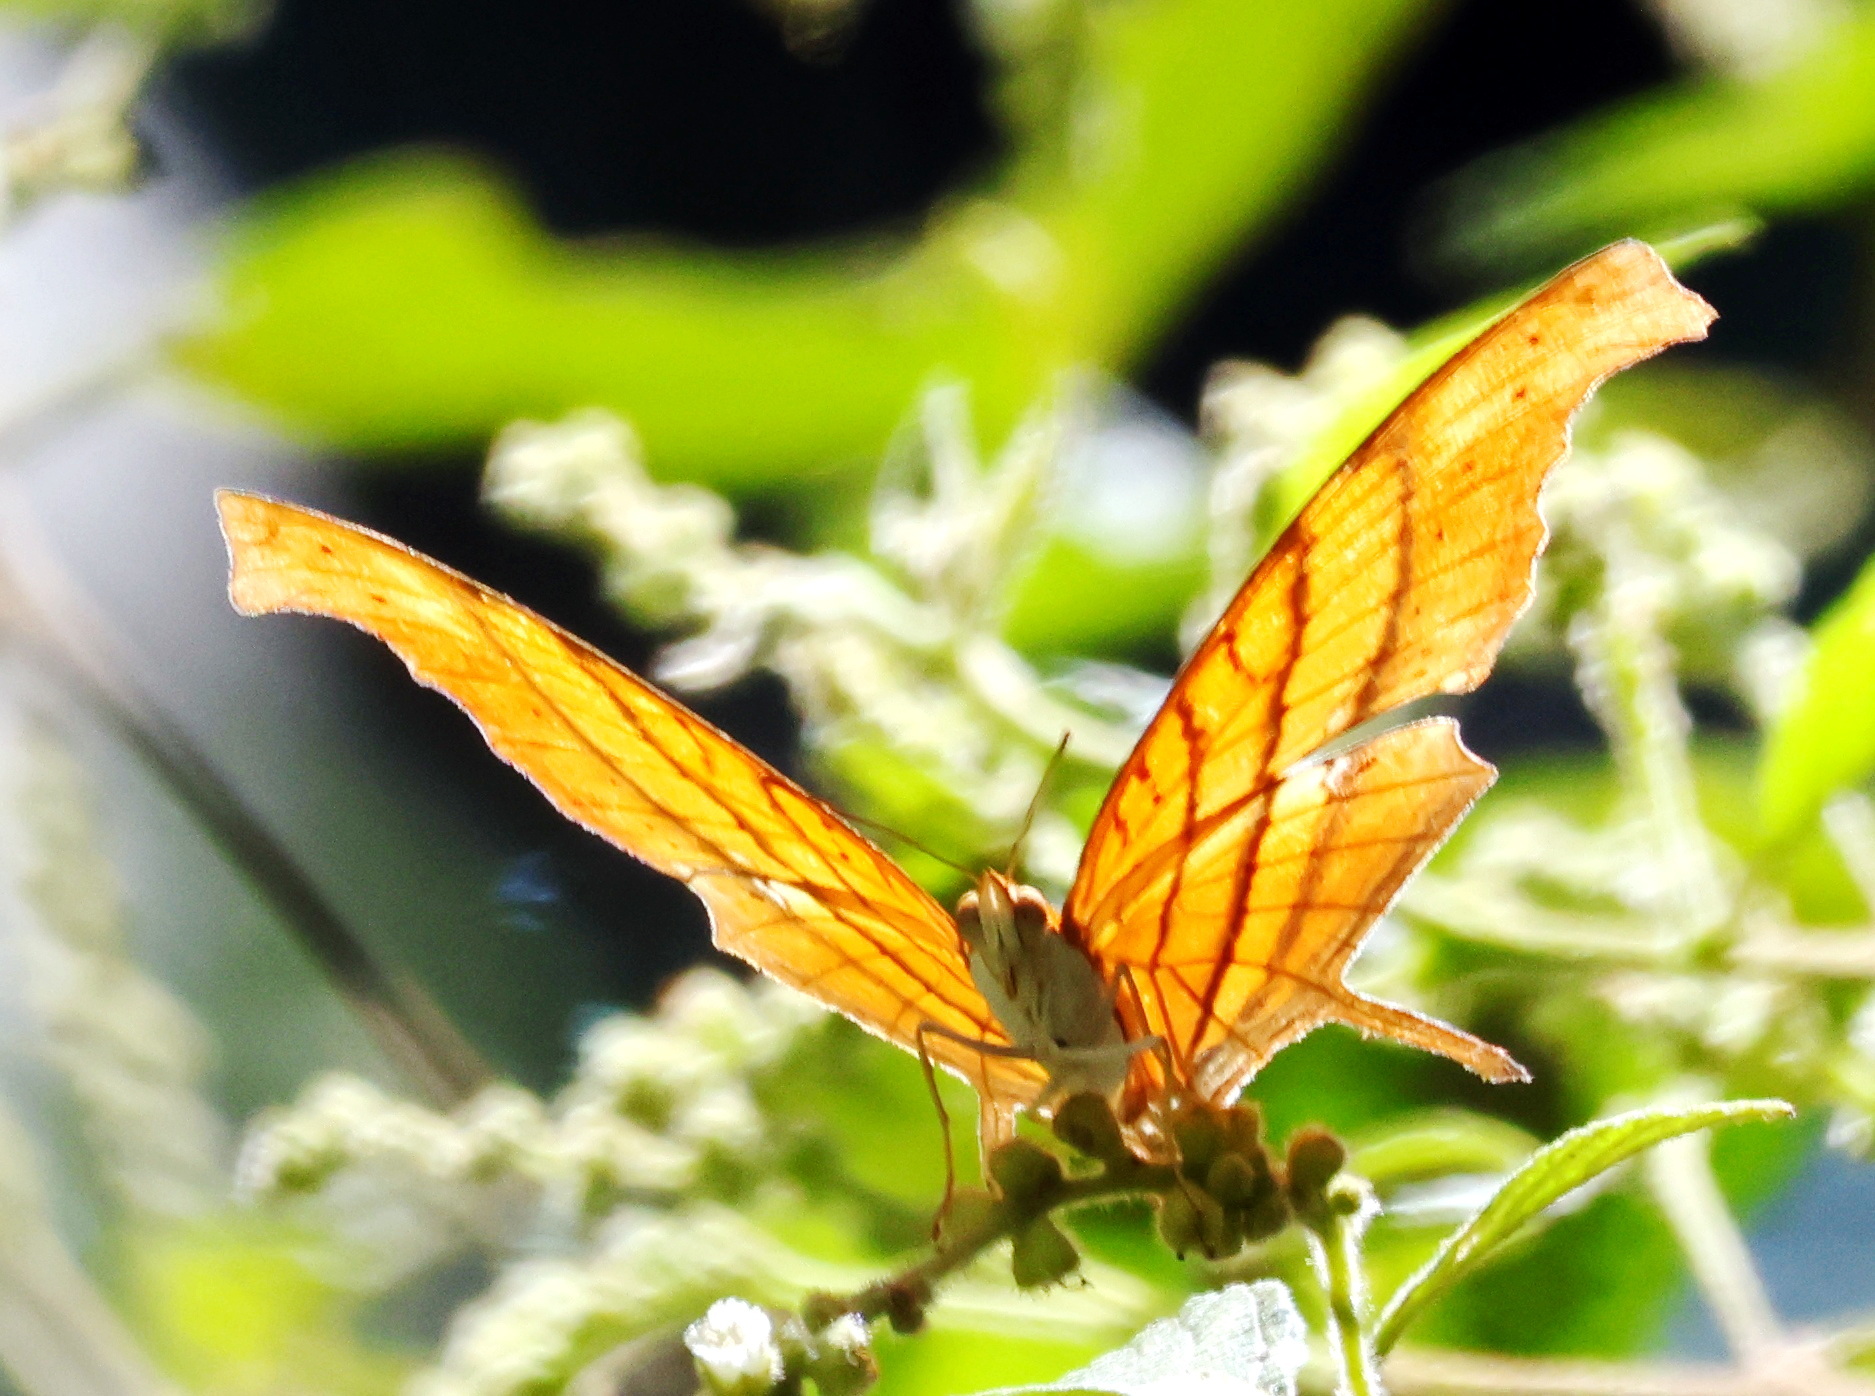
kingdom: Animalia
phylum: Arthropoda
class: Insecta
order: Lepidoptera
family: Nymphalidae
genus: Marpesia
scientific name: Marpesia petreus
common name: Red dagger wing
